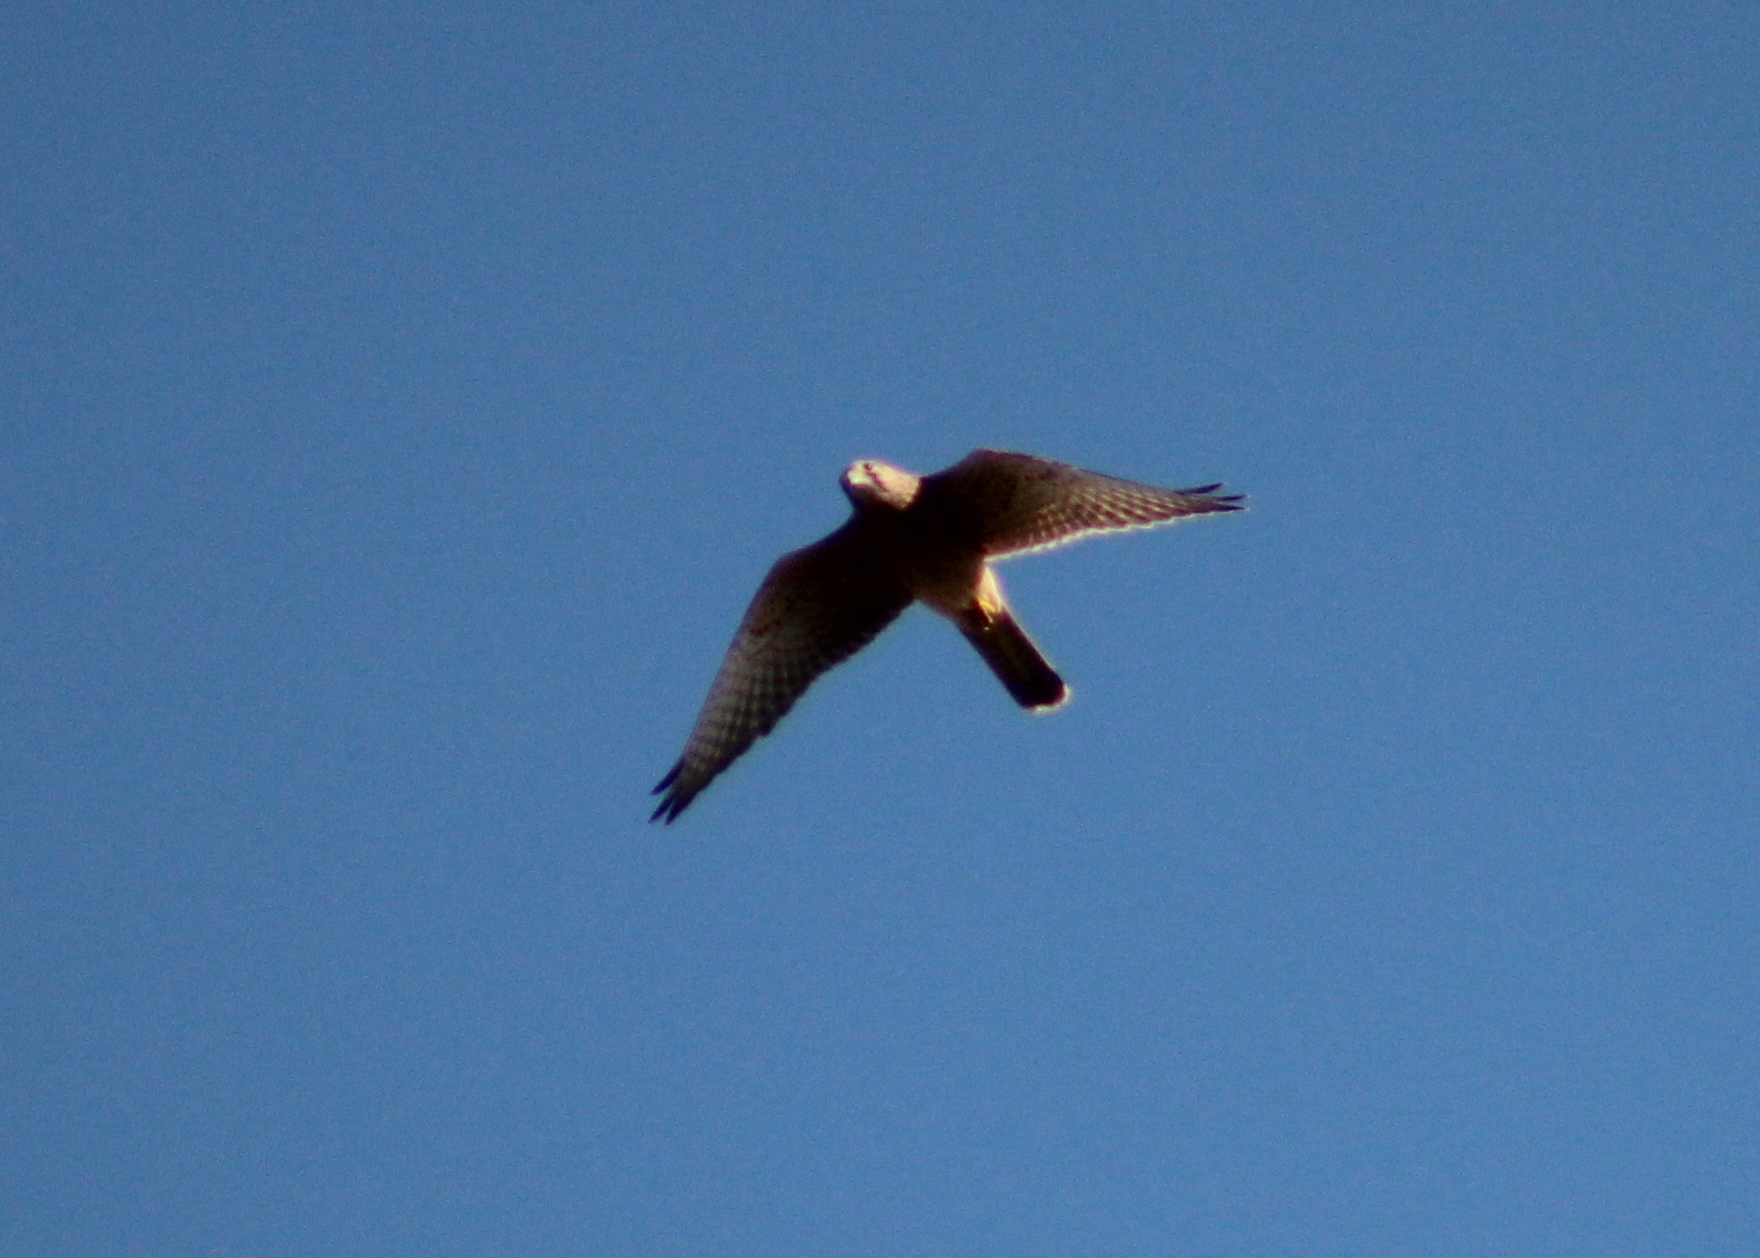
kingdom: Animalia
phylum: Chordata
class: Aves
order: Falconiformes
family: Falconidae
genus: Falco
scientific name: Falco tinnunculus
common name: Common kestrel
